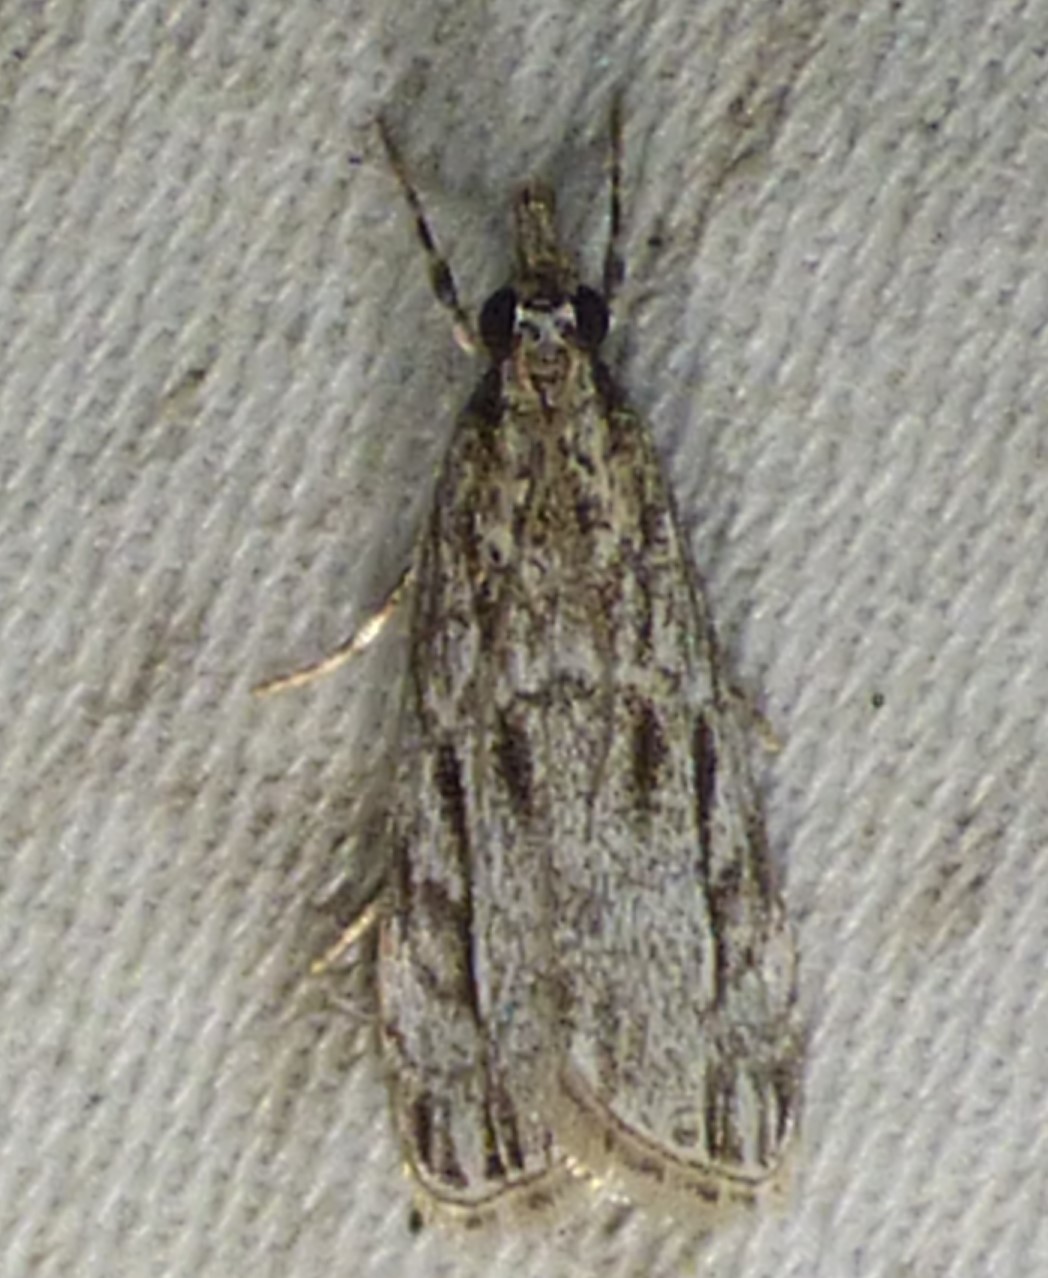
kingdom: Animalia
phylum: Arthropoda
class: Insecta
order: Lepidoptera
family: Crambidae
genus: Eudonia
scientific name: Eudonia strigalis
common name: Striped eudonia moth
